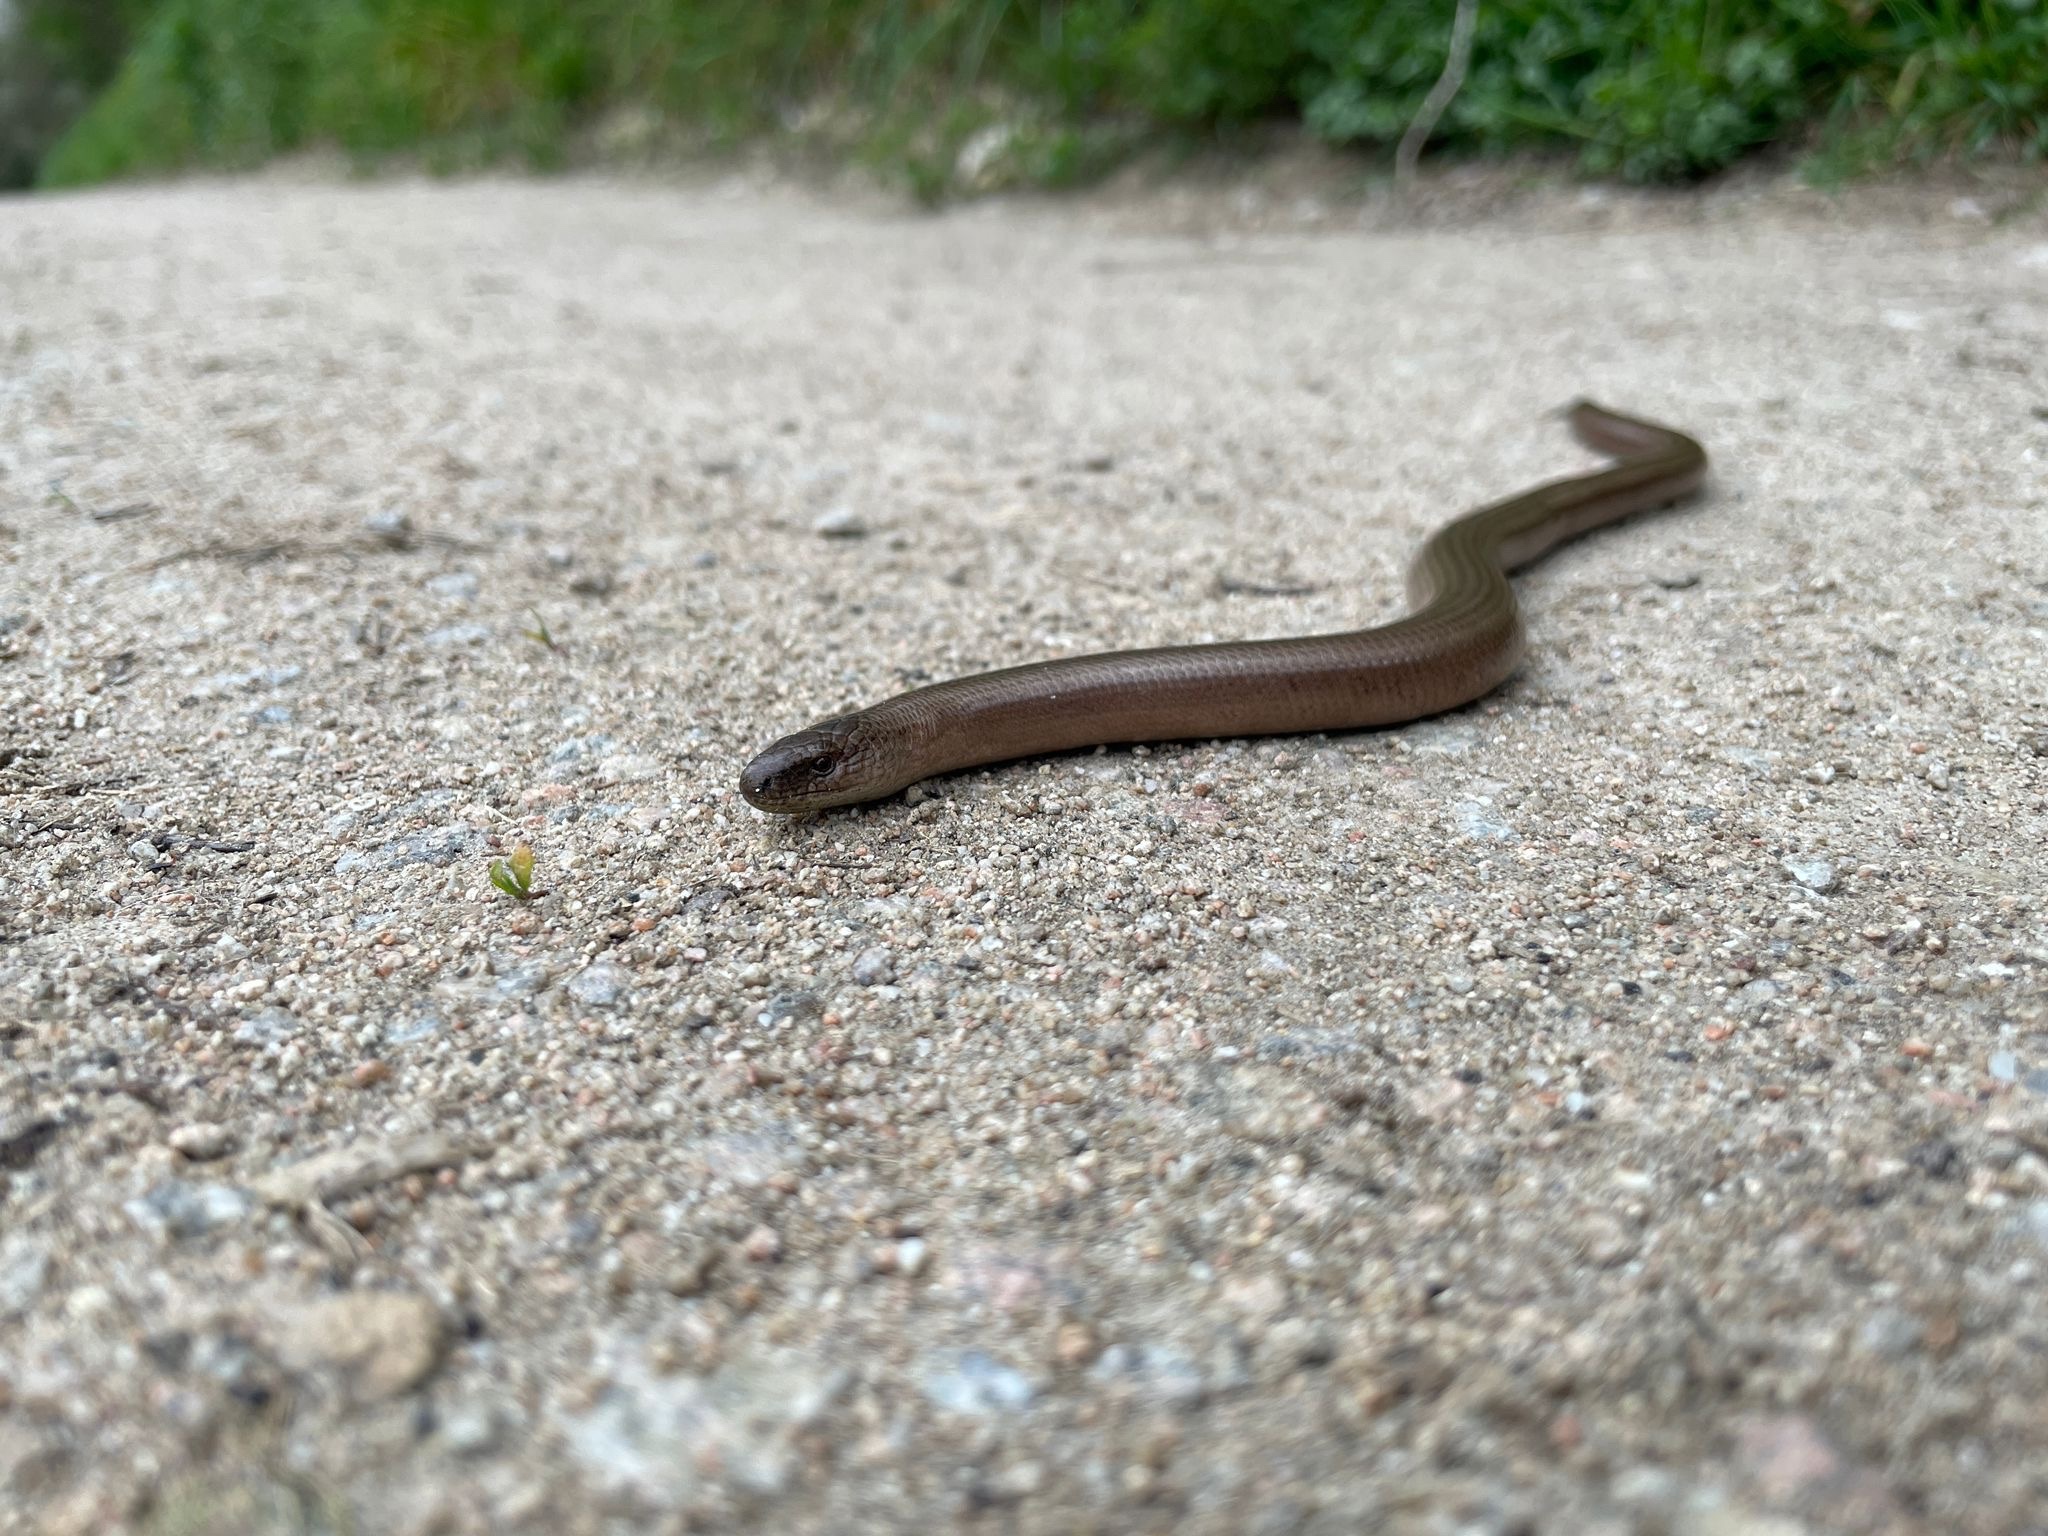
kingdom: Animalia
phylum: Chordata
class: Squamata
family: Anguidae
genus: Anguis
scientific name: Anguis fragilis
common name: Slow worm
